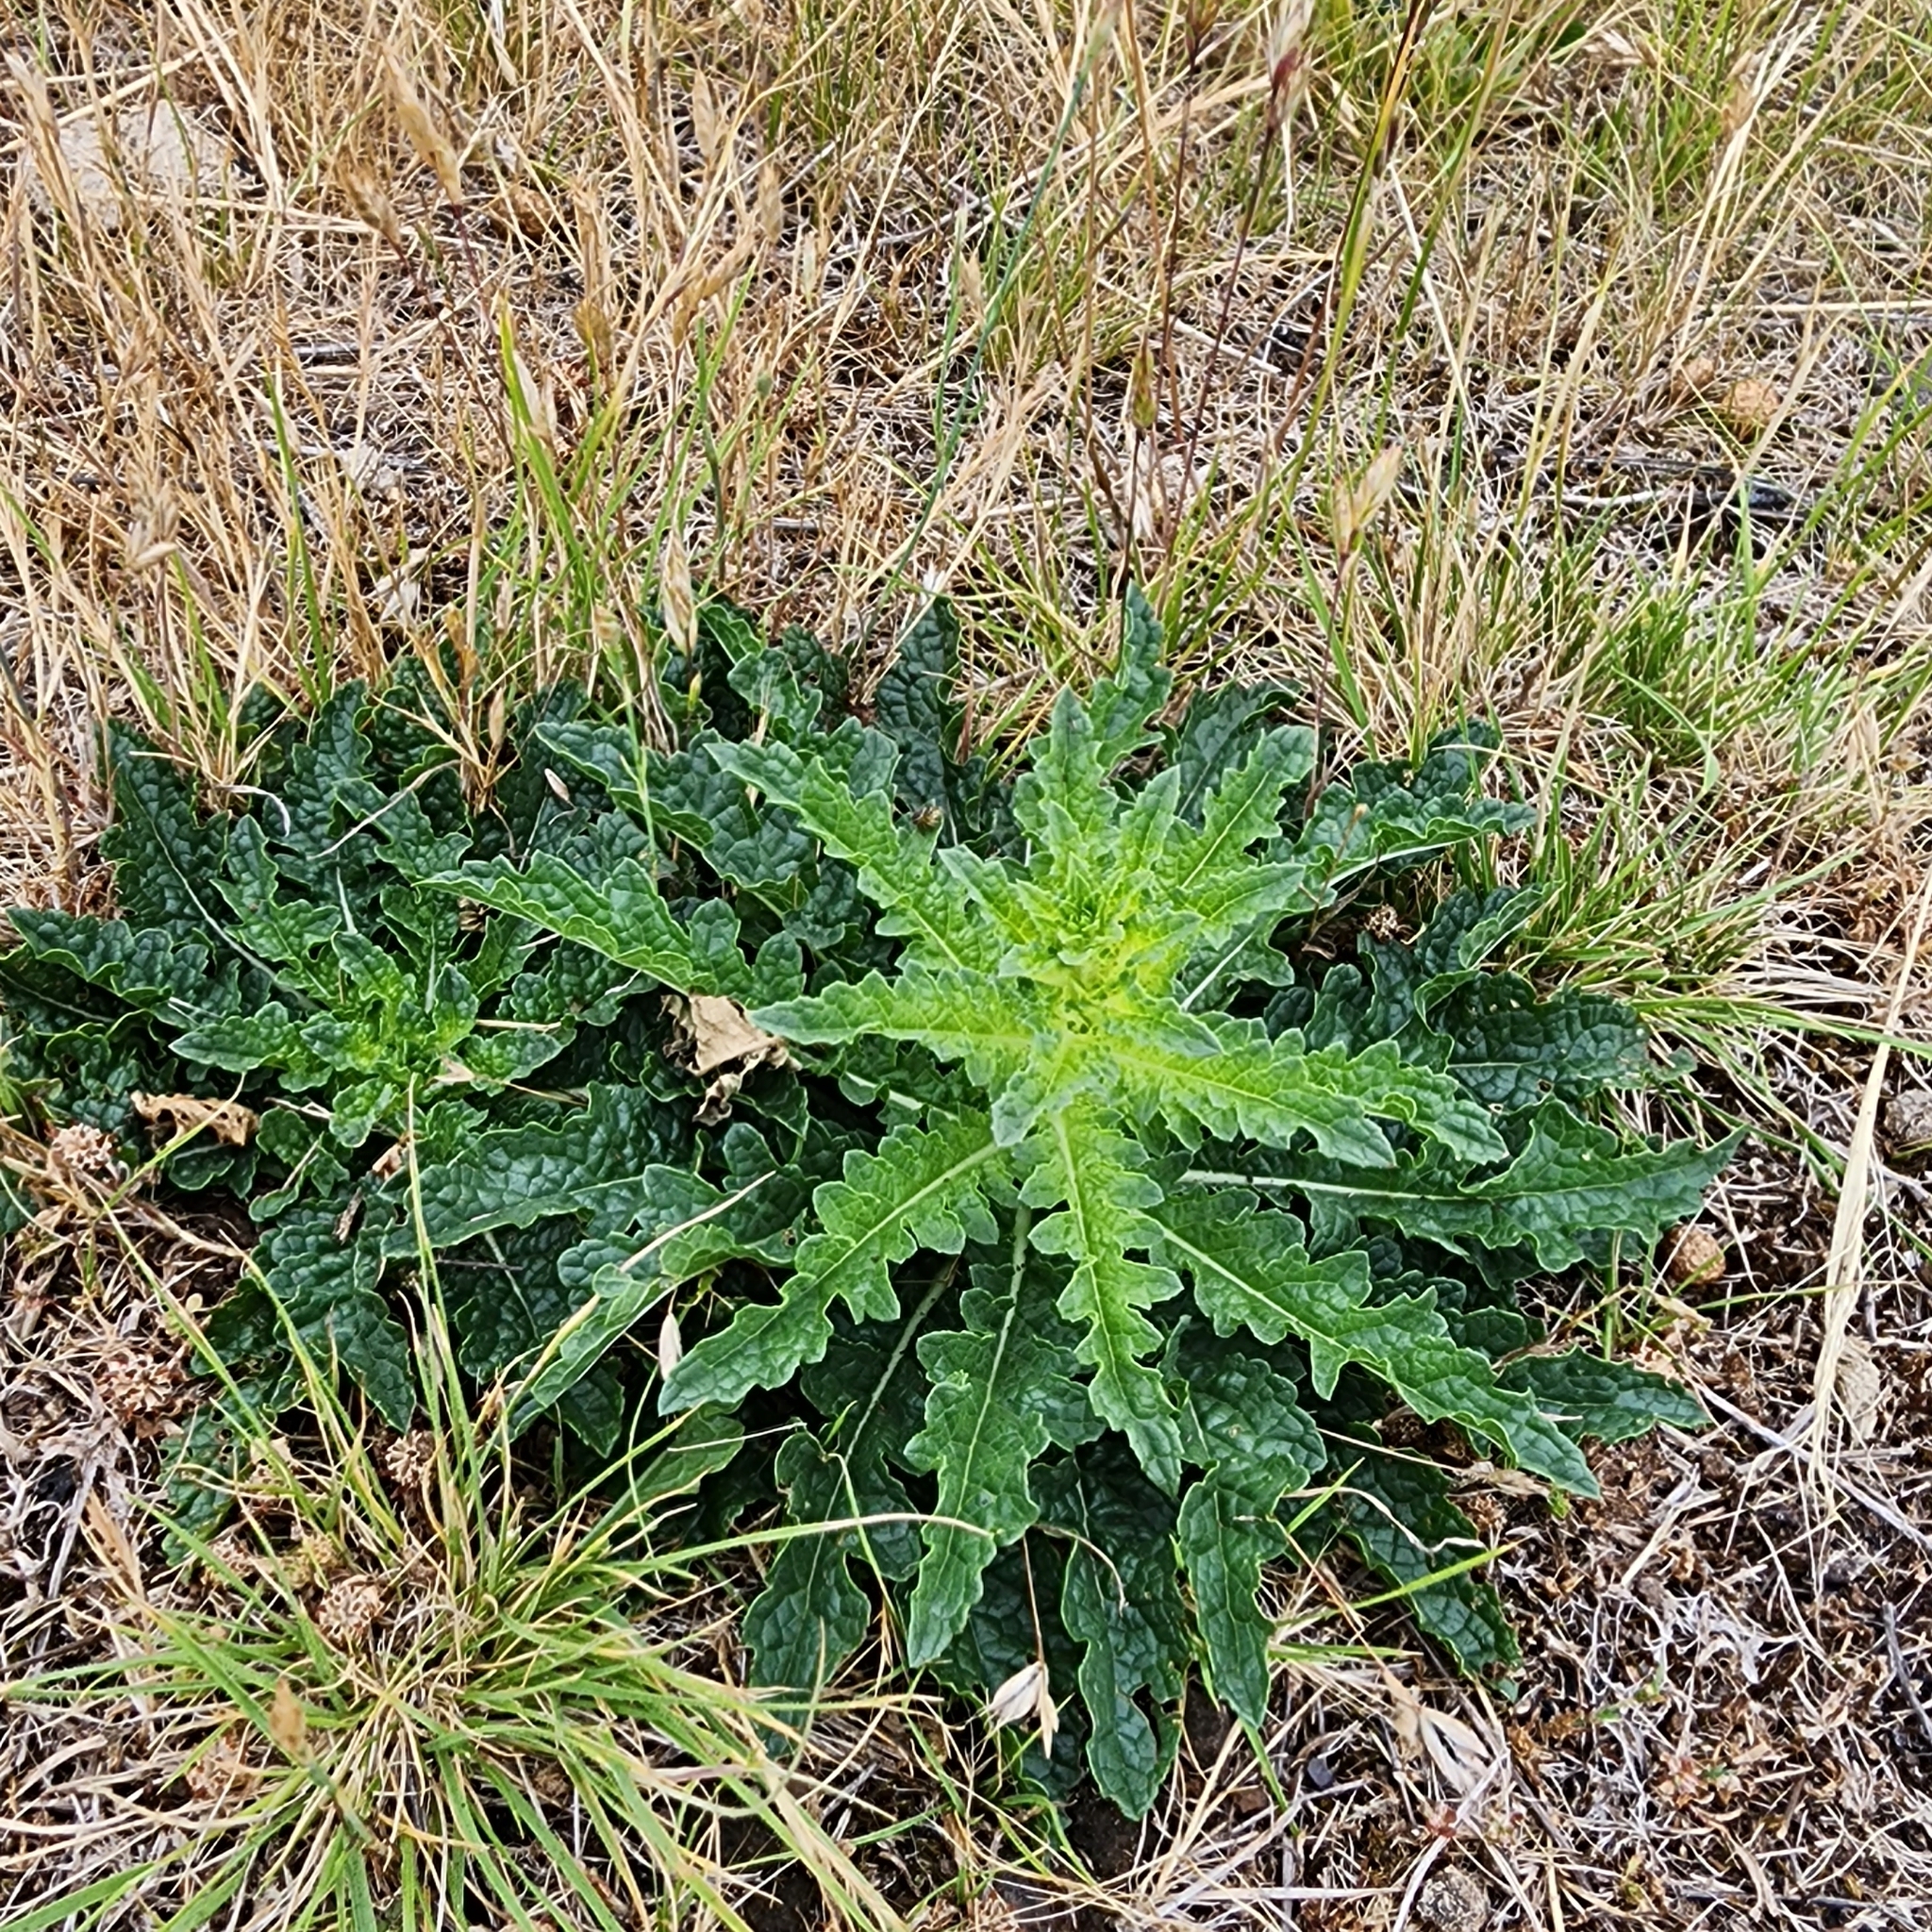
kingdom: Plantae
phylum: Tracheophyta
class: Magnoliopsida
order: Lamiales
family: Scrophulariaceae
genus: Verbascum
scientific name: Verbascum blattaria
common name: Moth mullein
